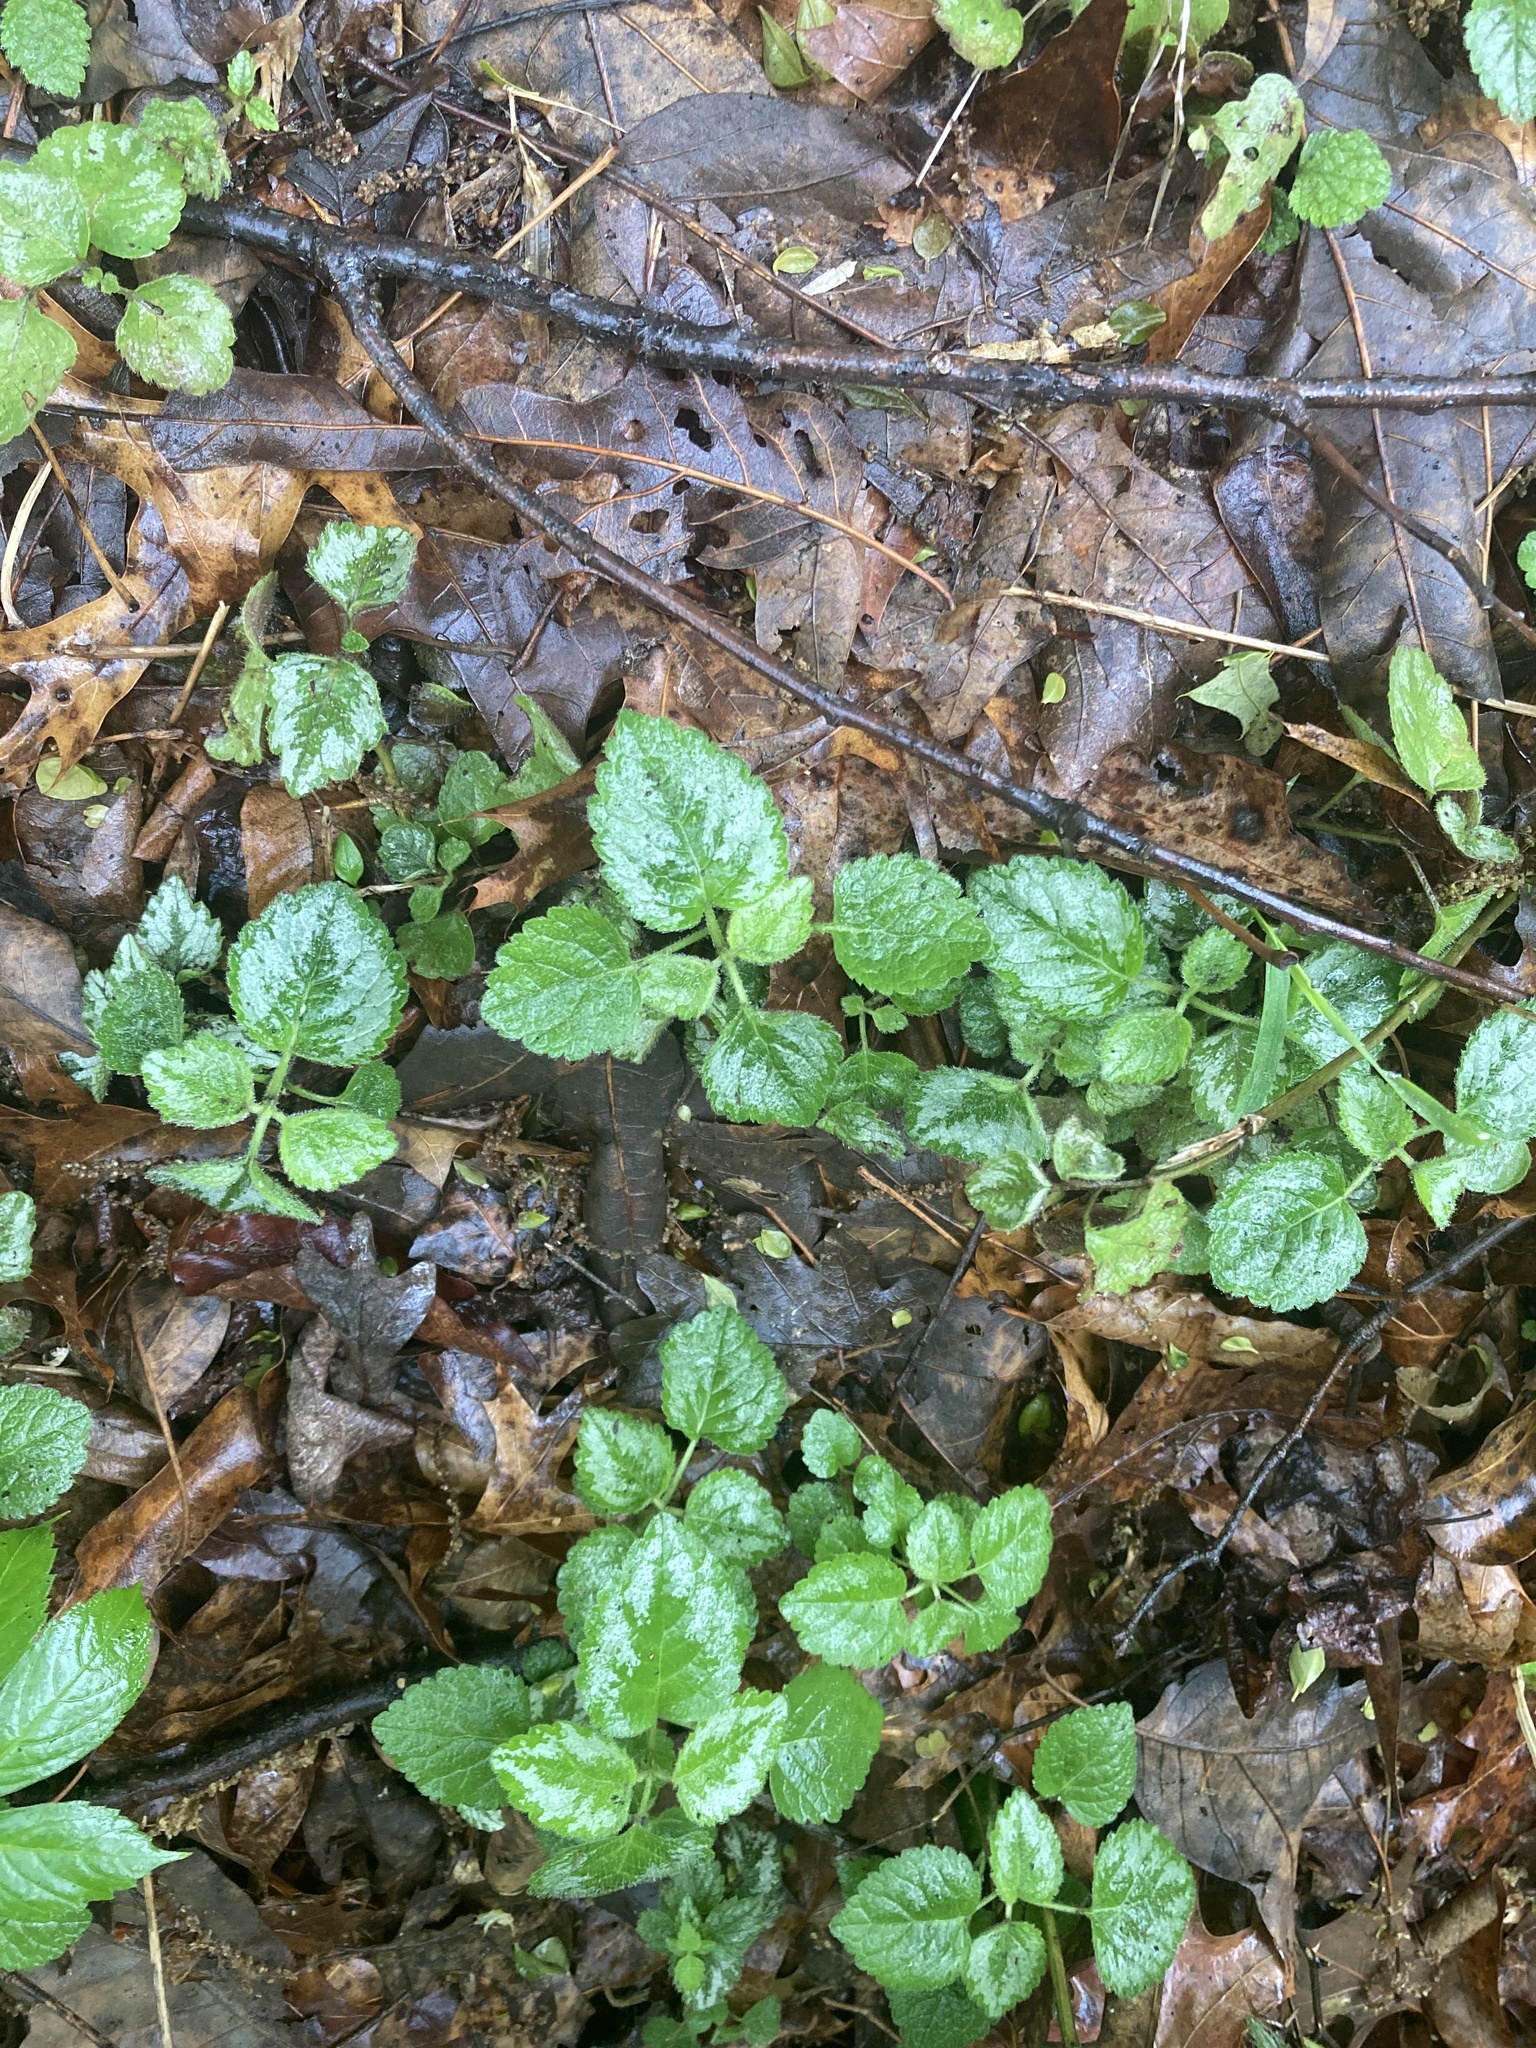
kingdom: Plantae
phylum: Tracheophyta
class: Magnoliopsida
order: Lamiales
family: Lamiaceae
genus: Lamium
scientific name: Lamium galeobdolon
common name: Yellow archangel
